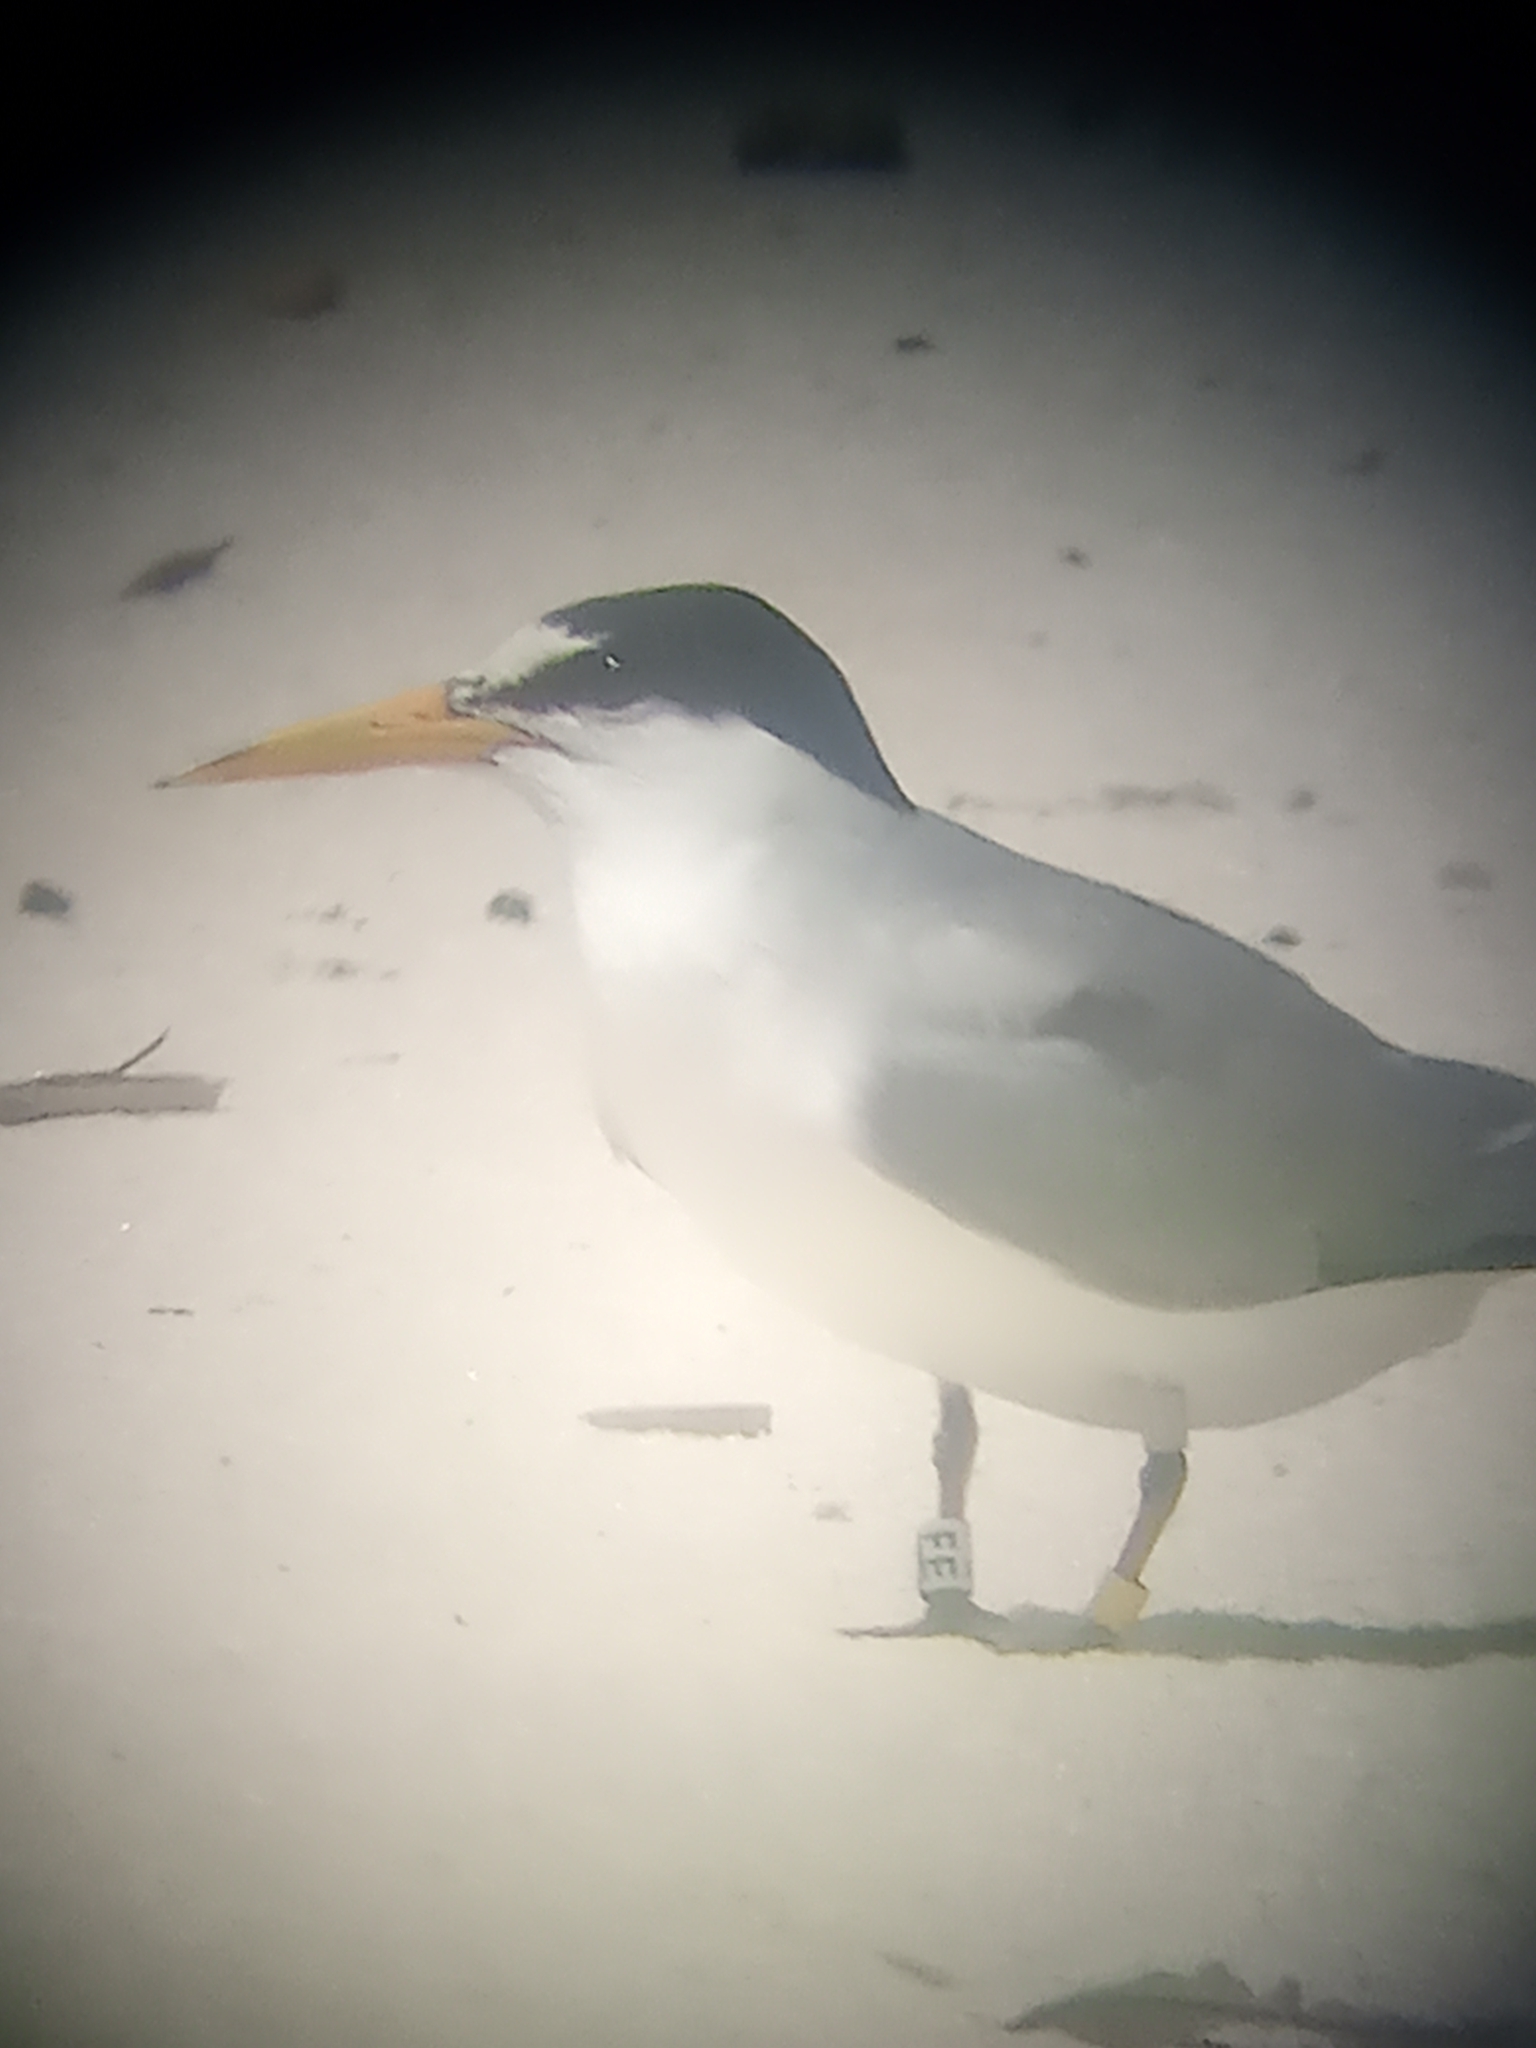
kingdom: Animalia
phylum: Chordata
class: Aves
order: Charadriiformes
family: Laridae
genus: Sternula
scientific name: Sternula antillarum
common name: Least tern
